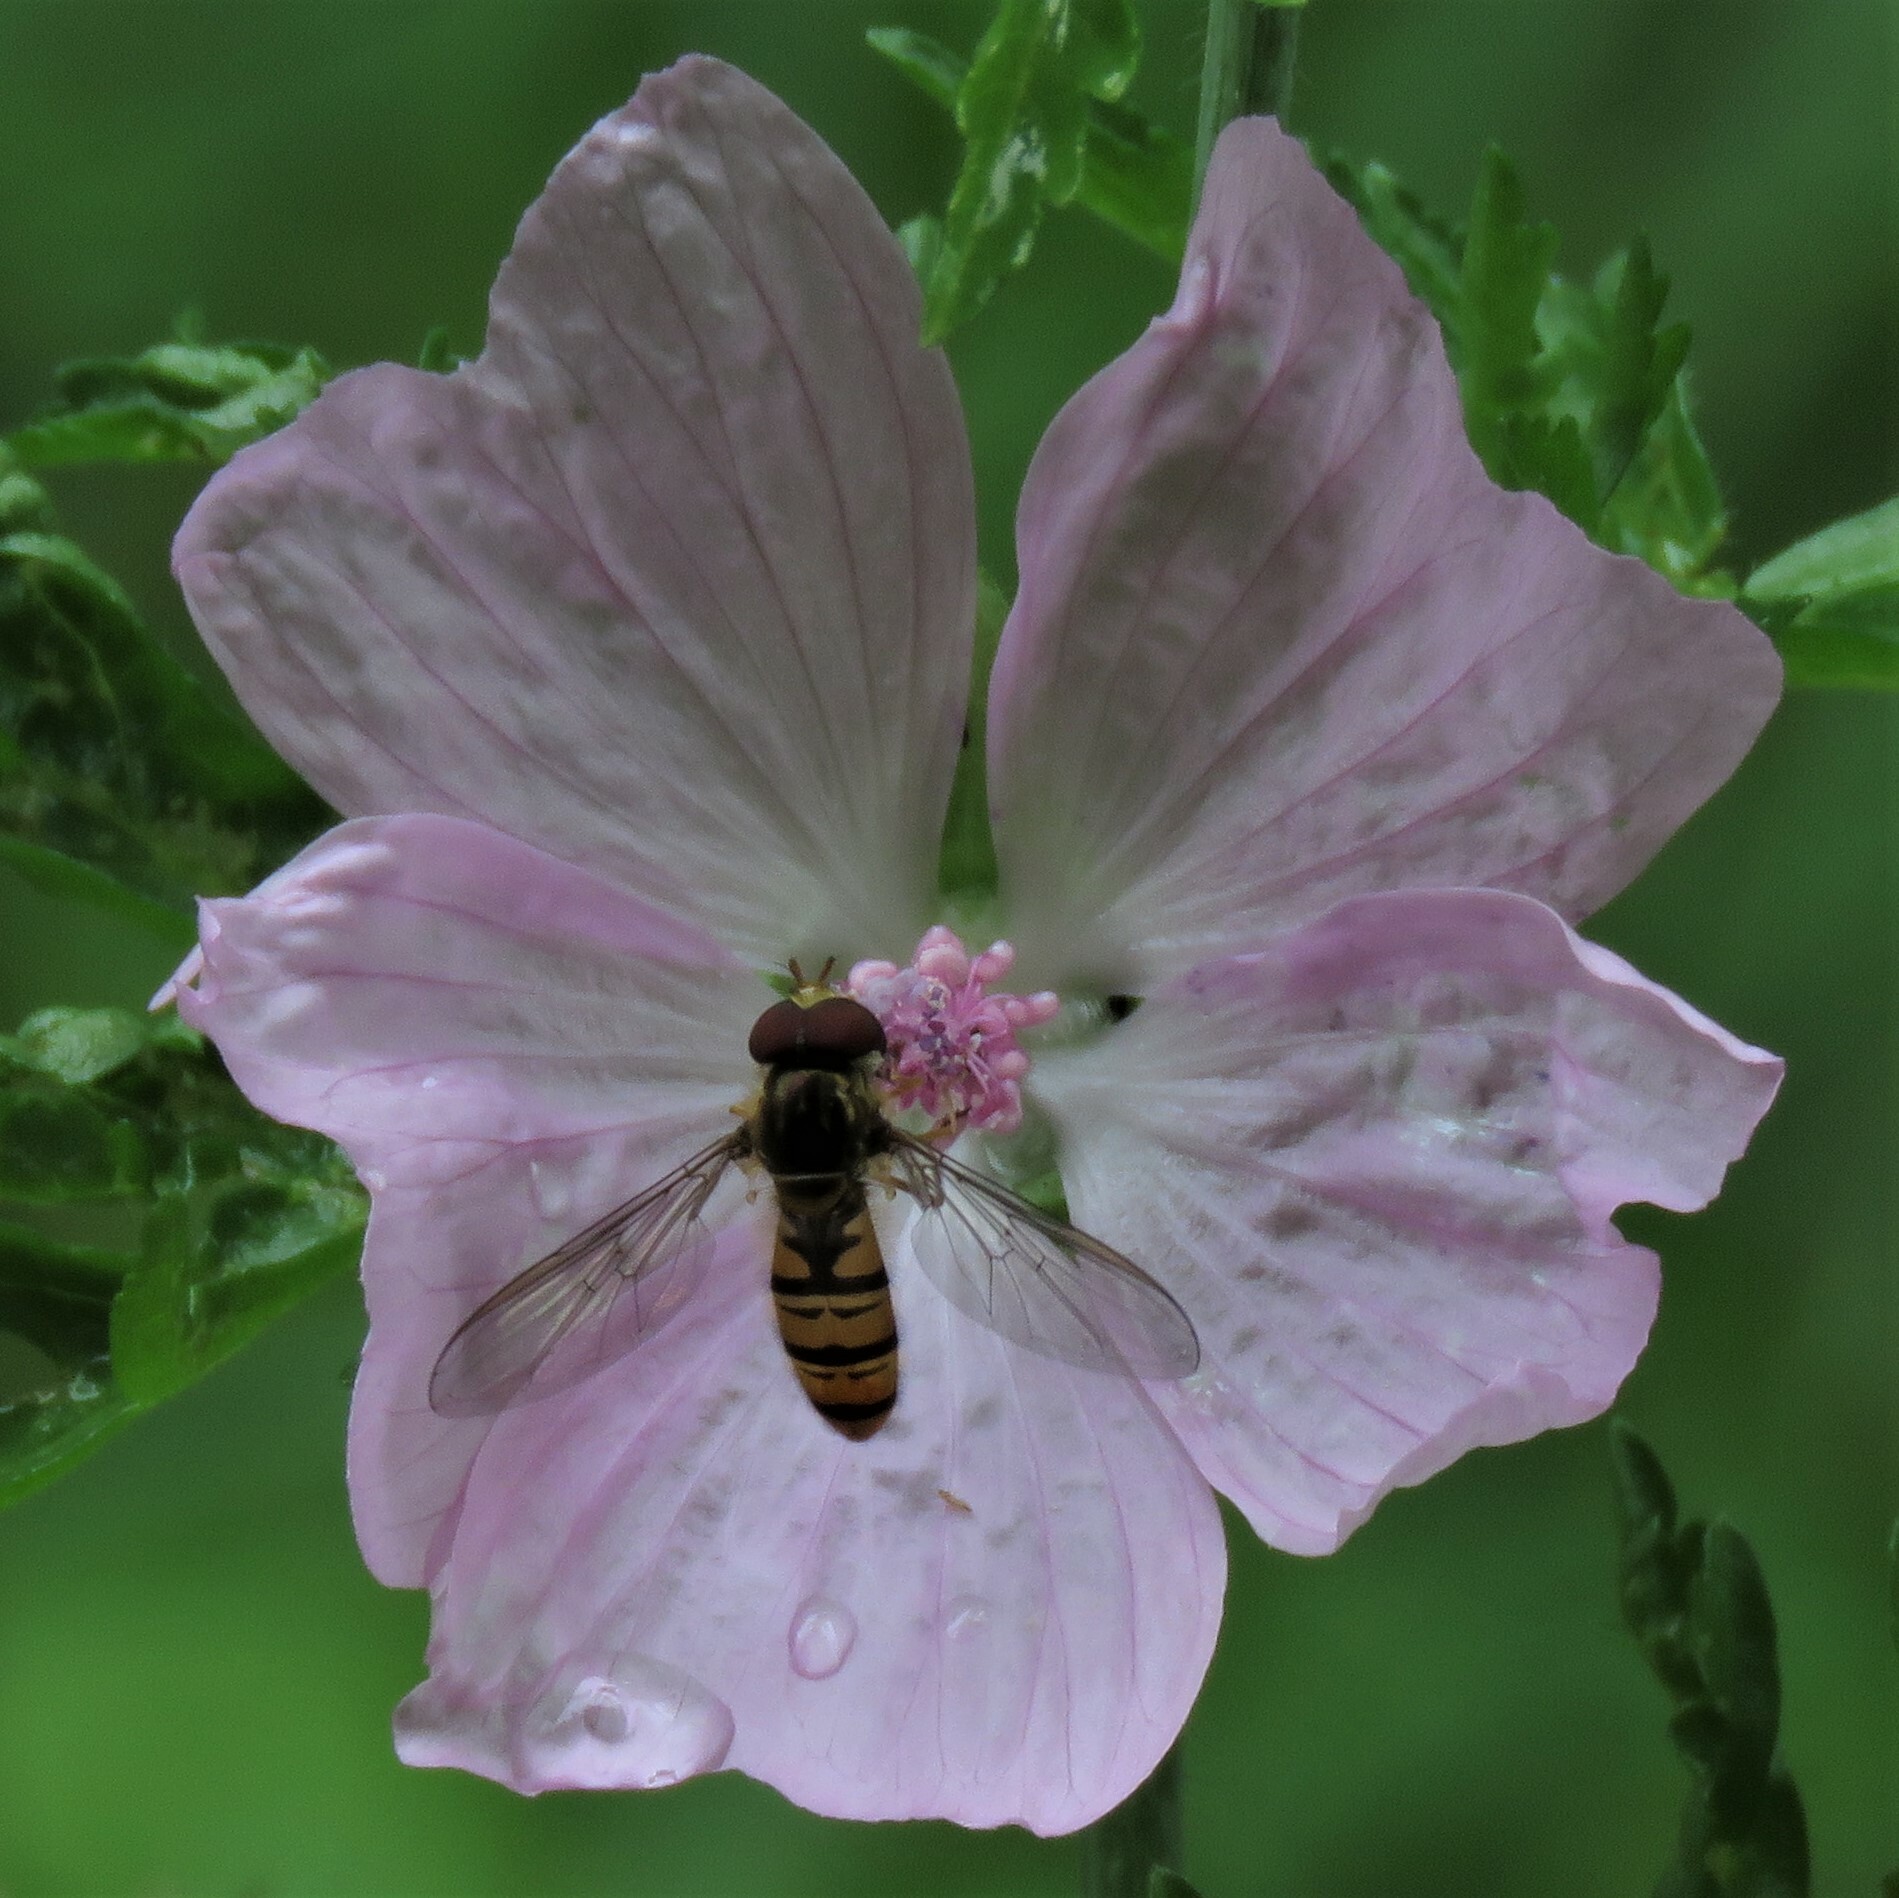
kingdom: Animalia
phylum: Arthropoda
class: Insecta
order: Diptera
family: Syrphidae
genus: Episyrphus
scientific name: Episyrphus balteatus
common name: Marmalade hoverfly
